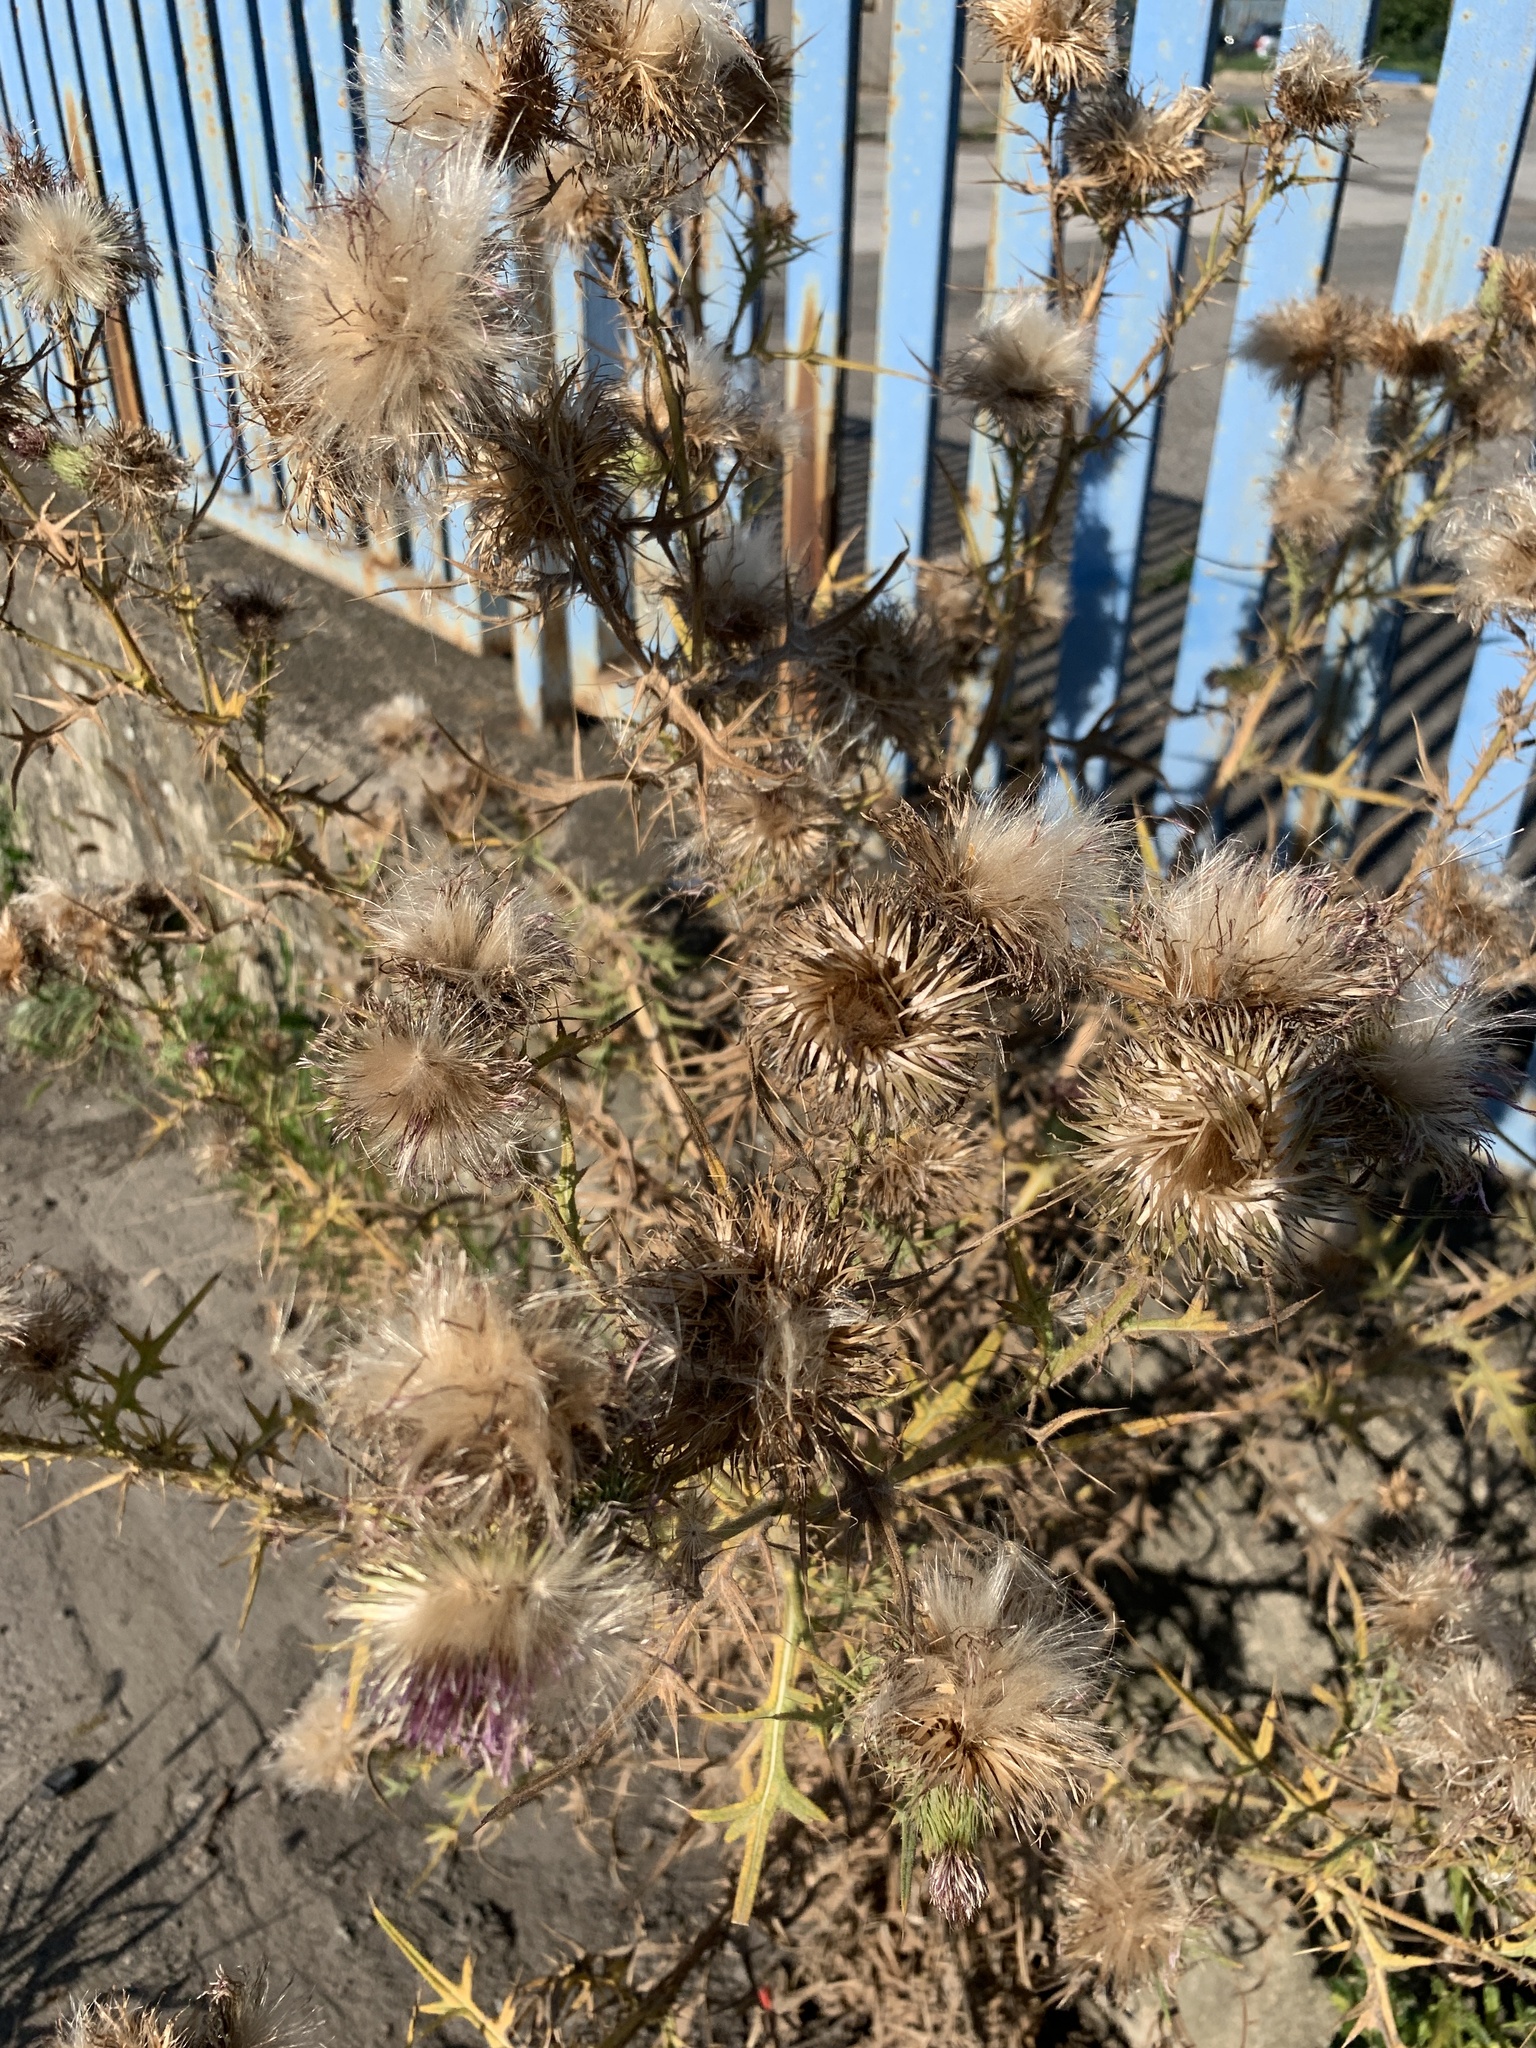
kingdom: Plantae
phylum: Tracheophyta
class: Magnoliopsida
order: Asterales
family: Asteraceae
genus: Cirsium
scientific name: Cirsium vulgare
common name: Bull thistle
